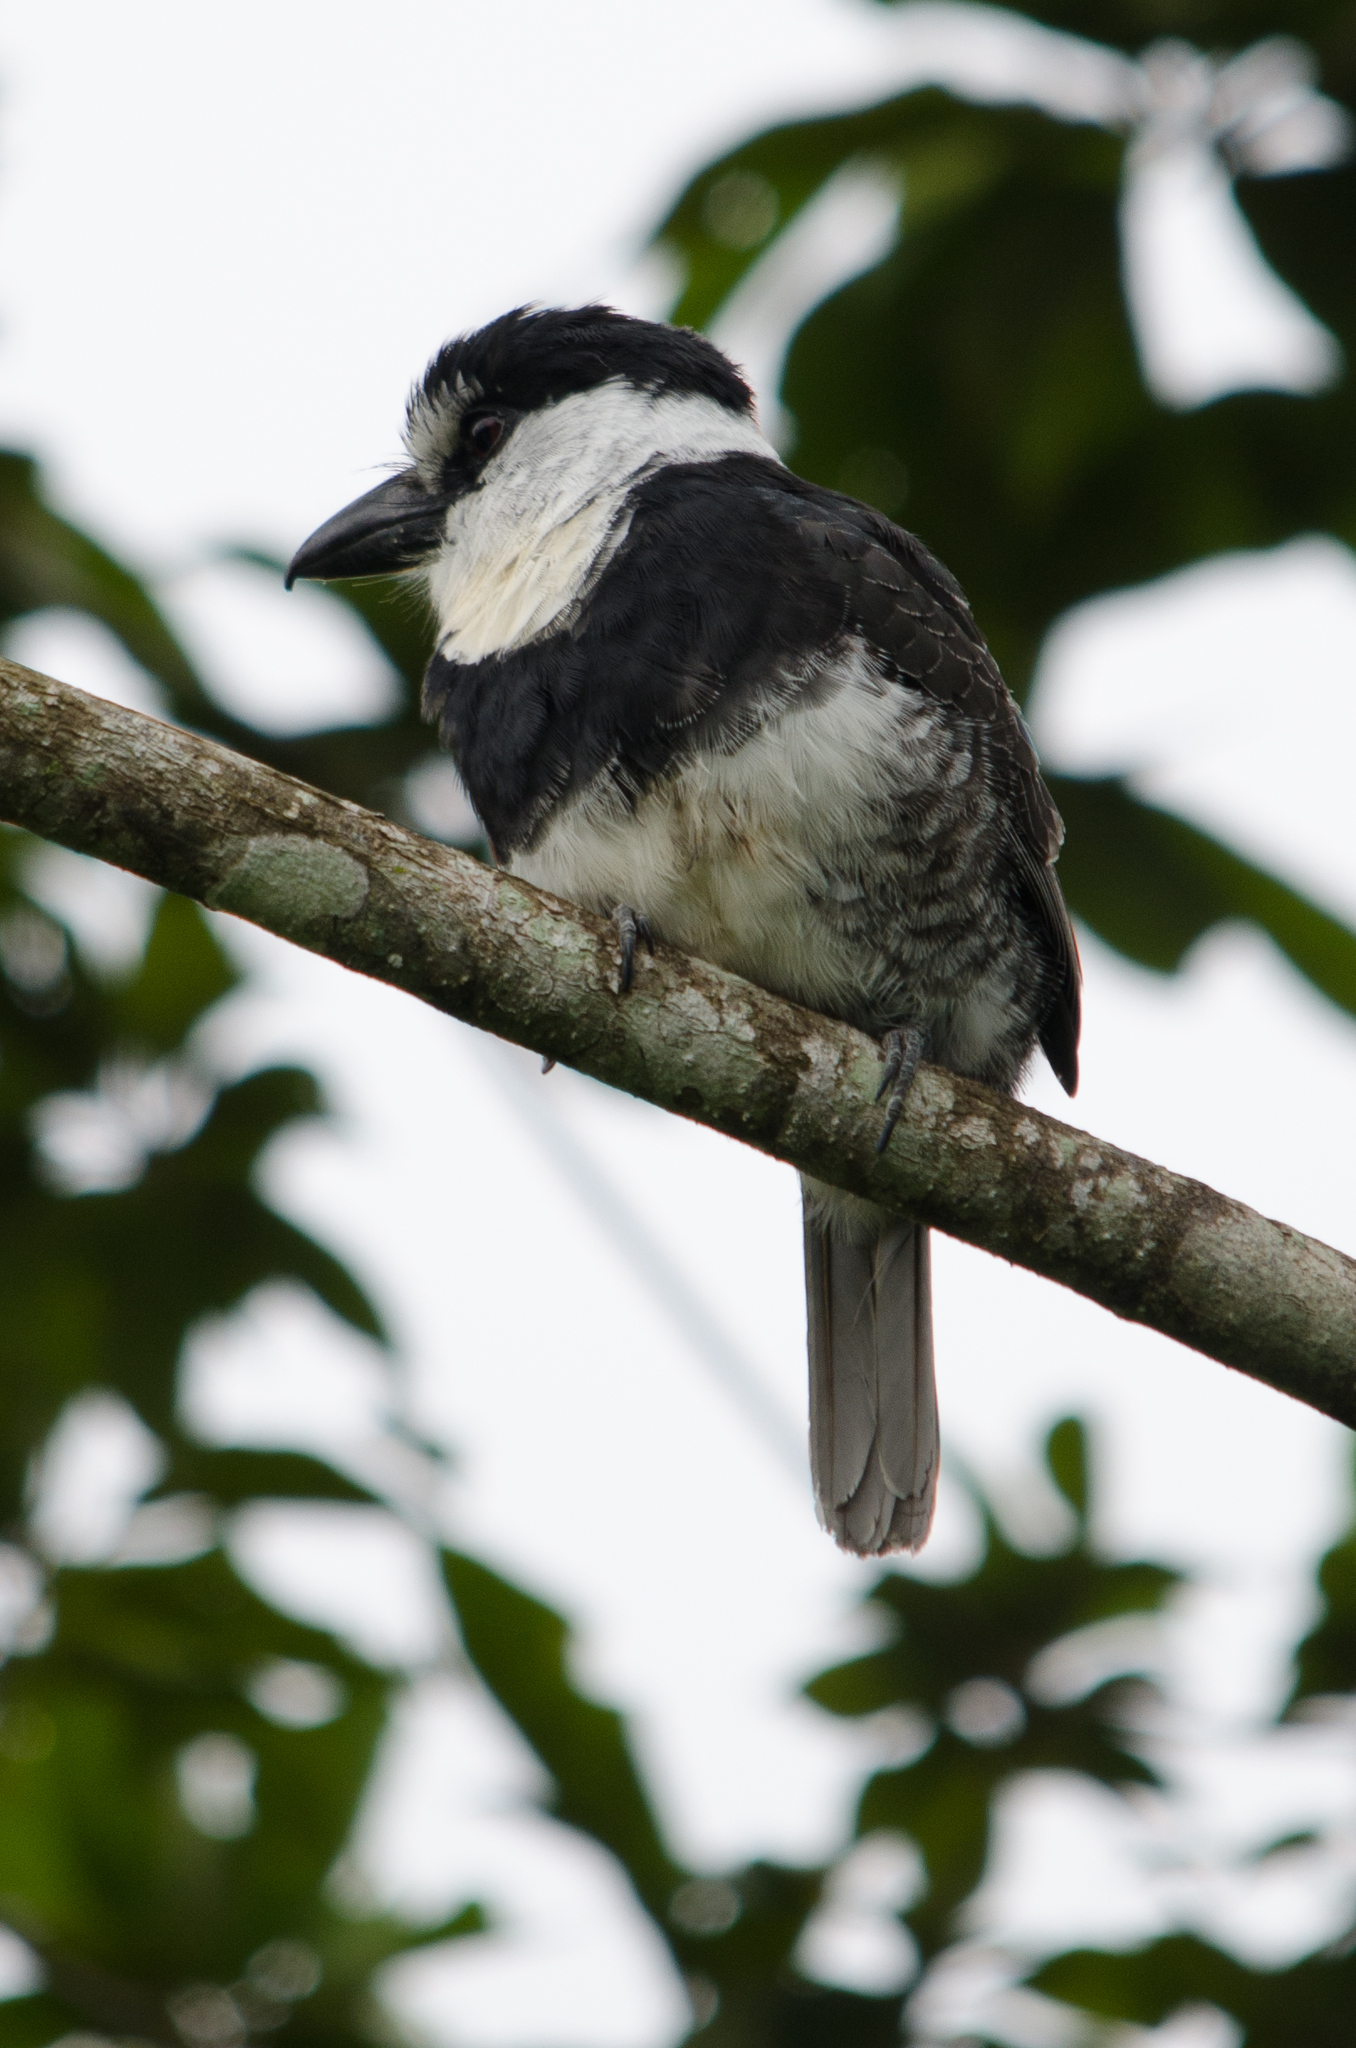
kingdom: Animalia
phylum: Chordata
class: Aves
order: Piciformes
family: Bucconidae
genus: Notharchus
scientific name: Notharchus hyperrhynchus
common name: White-necked puffbird
